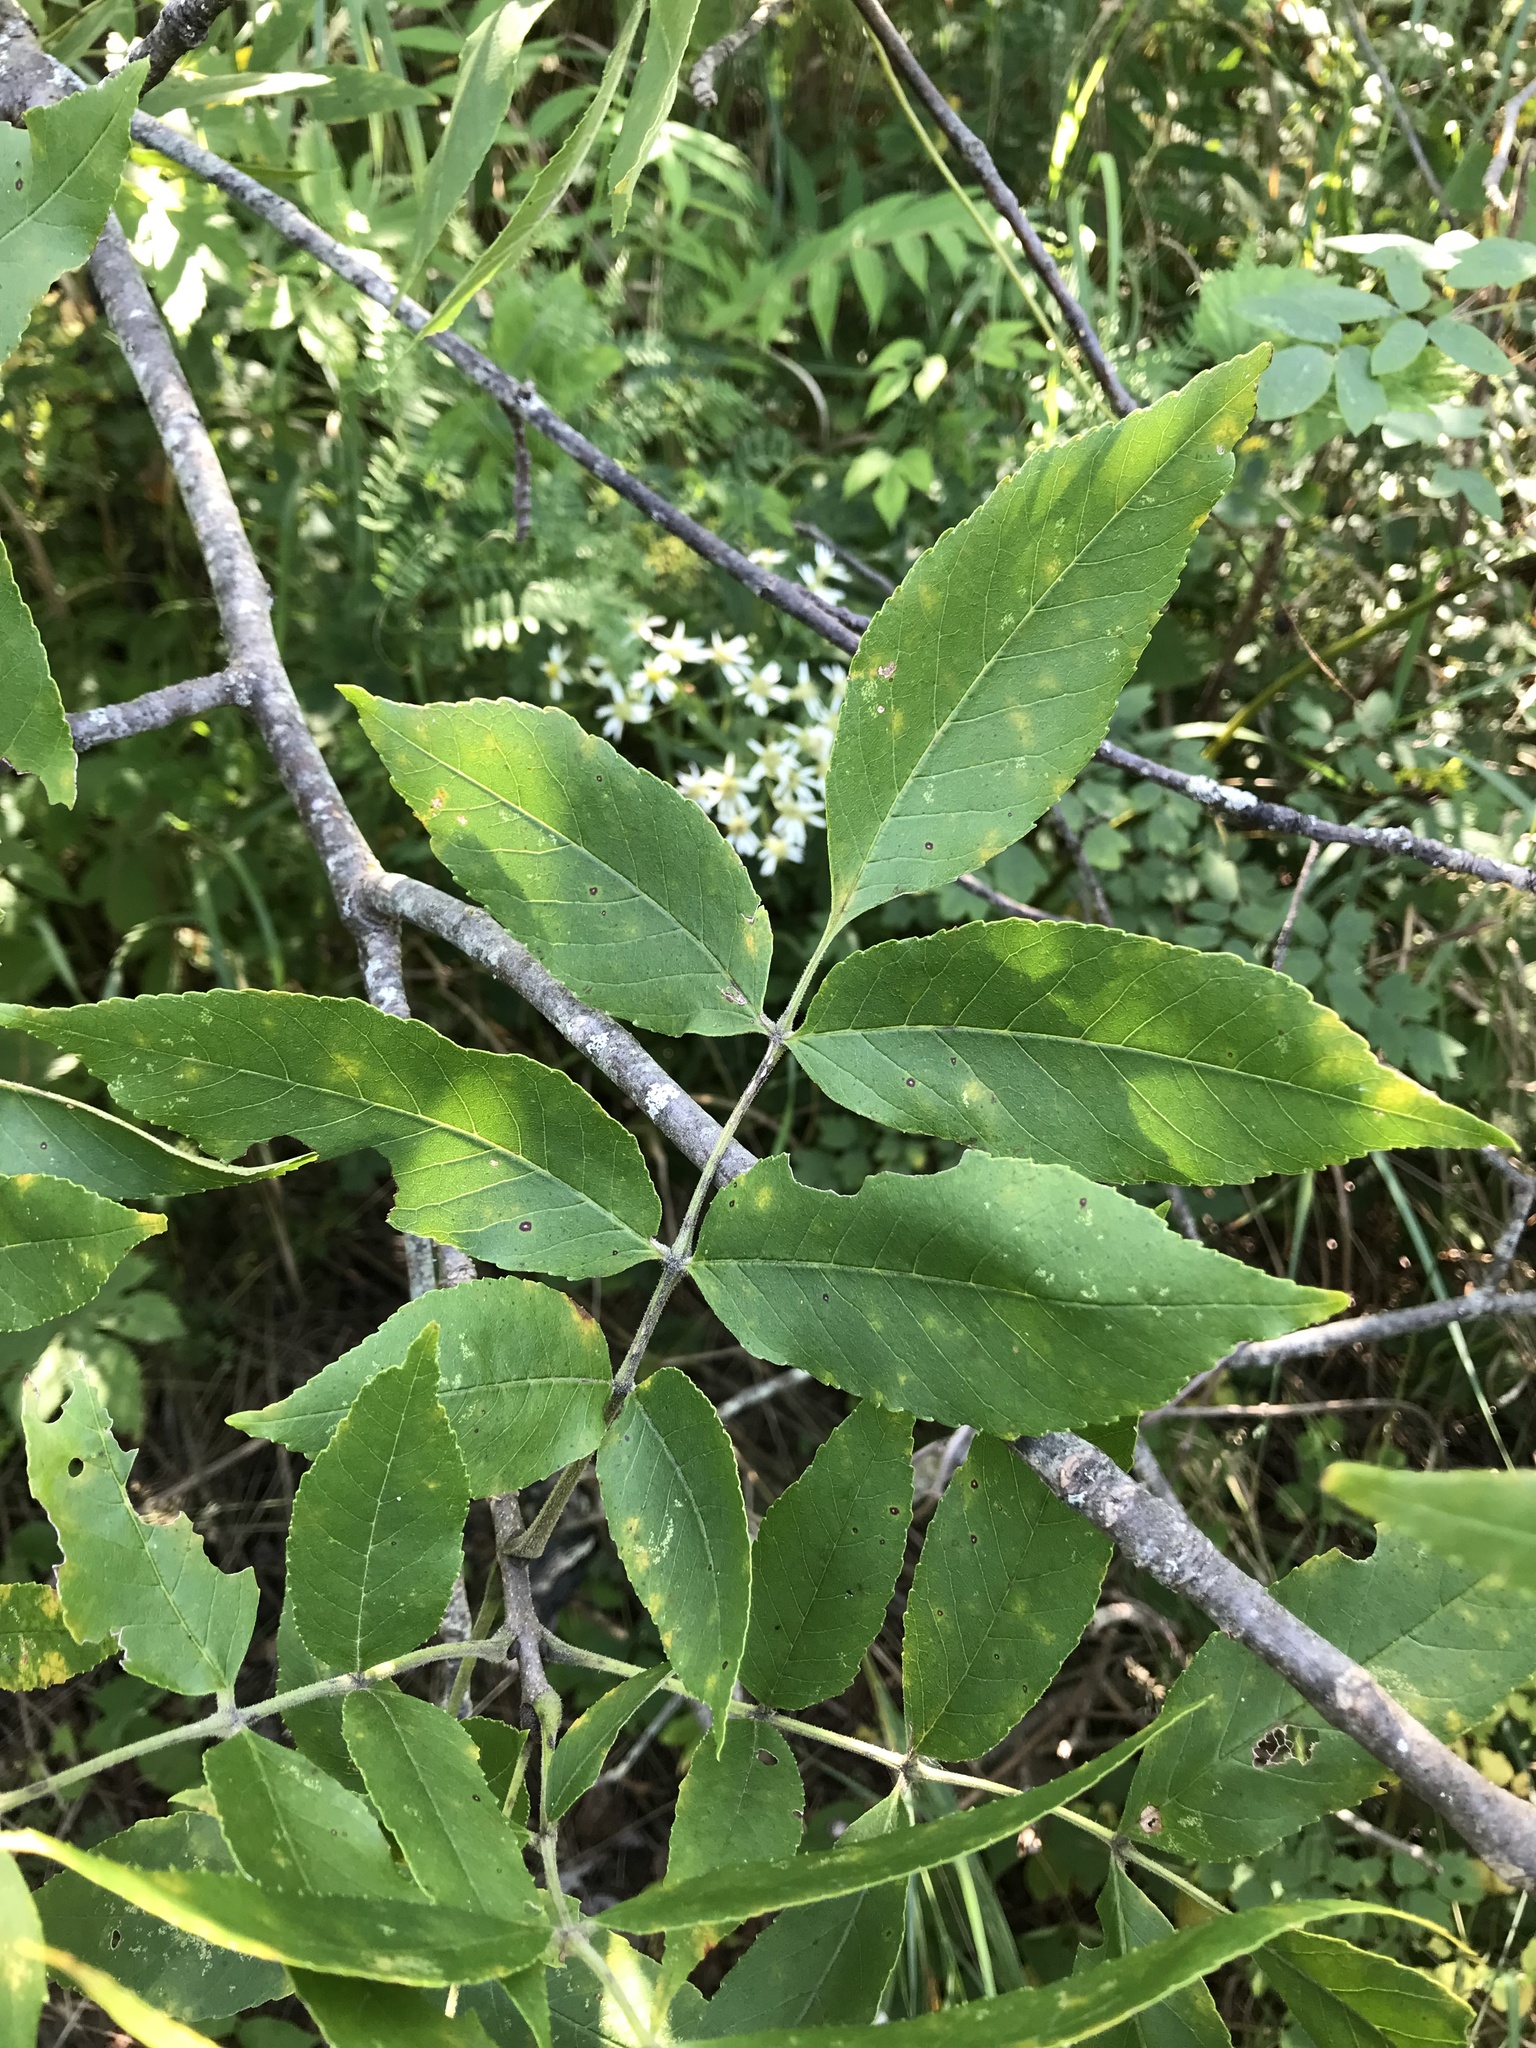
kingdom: Plantae
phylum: Tracheophyta
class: Magnoliopsida
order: Lamiales
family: Oleaceae
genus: Fraxinus
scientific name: Fraxinus pennsylvanica
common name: Green ash
